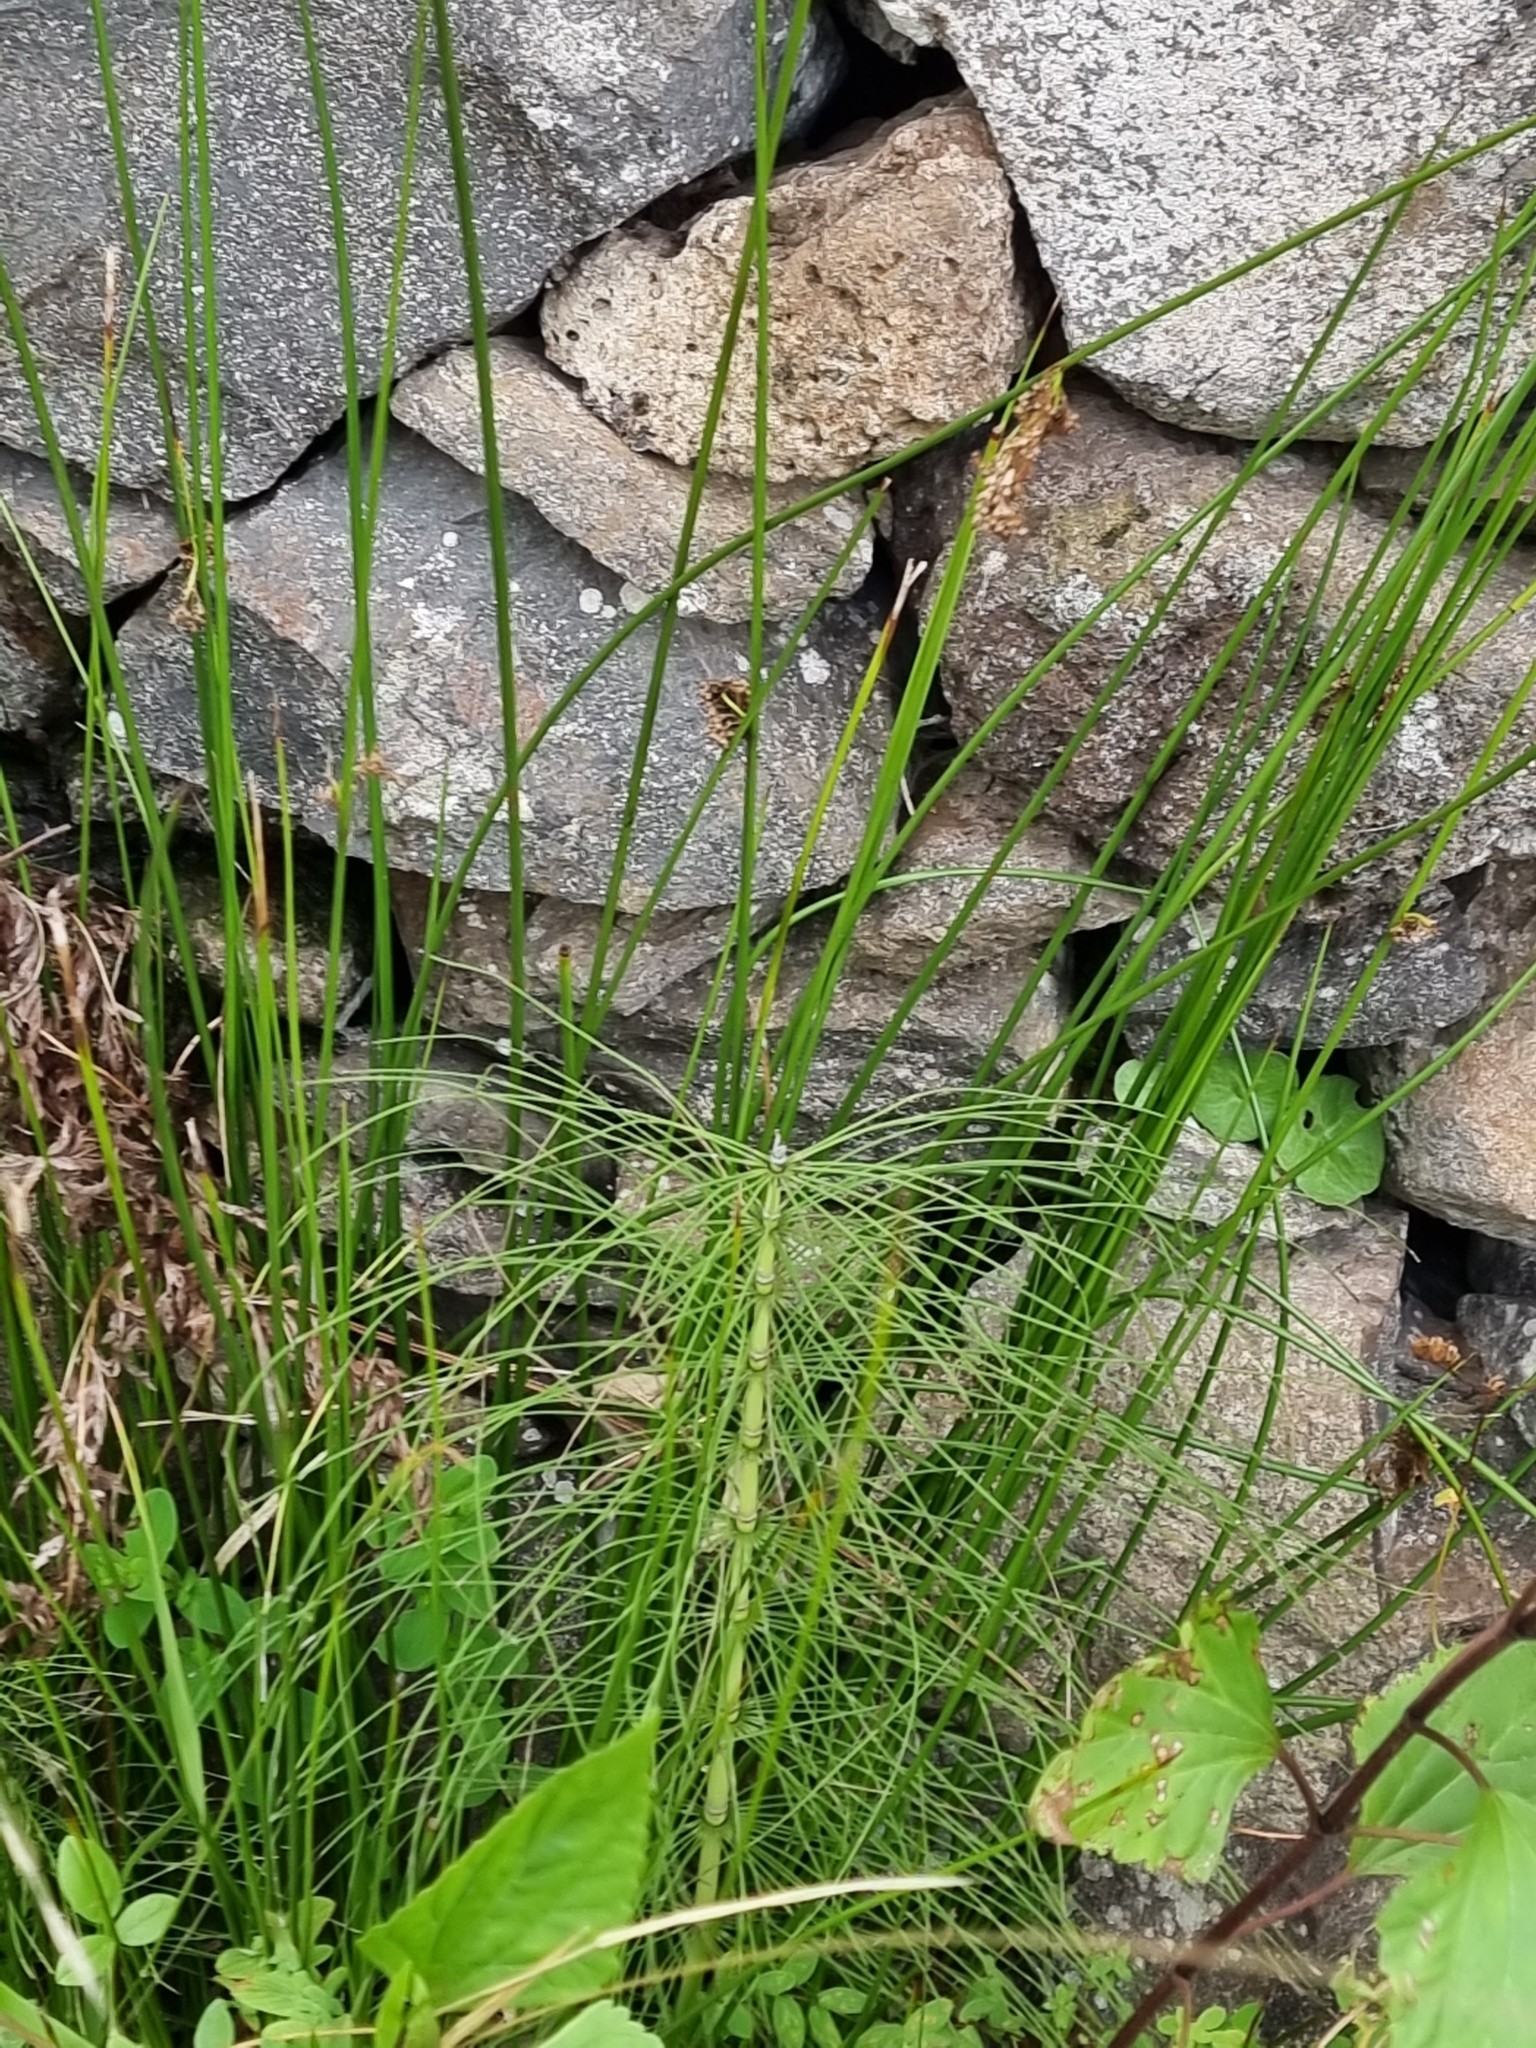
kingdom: Plantae
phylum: Tracheophyta
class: Liliopsida
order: Poales
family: Juncaceae
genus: Juncus
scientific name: Juncus effusus
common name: Soft rush
